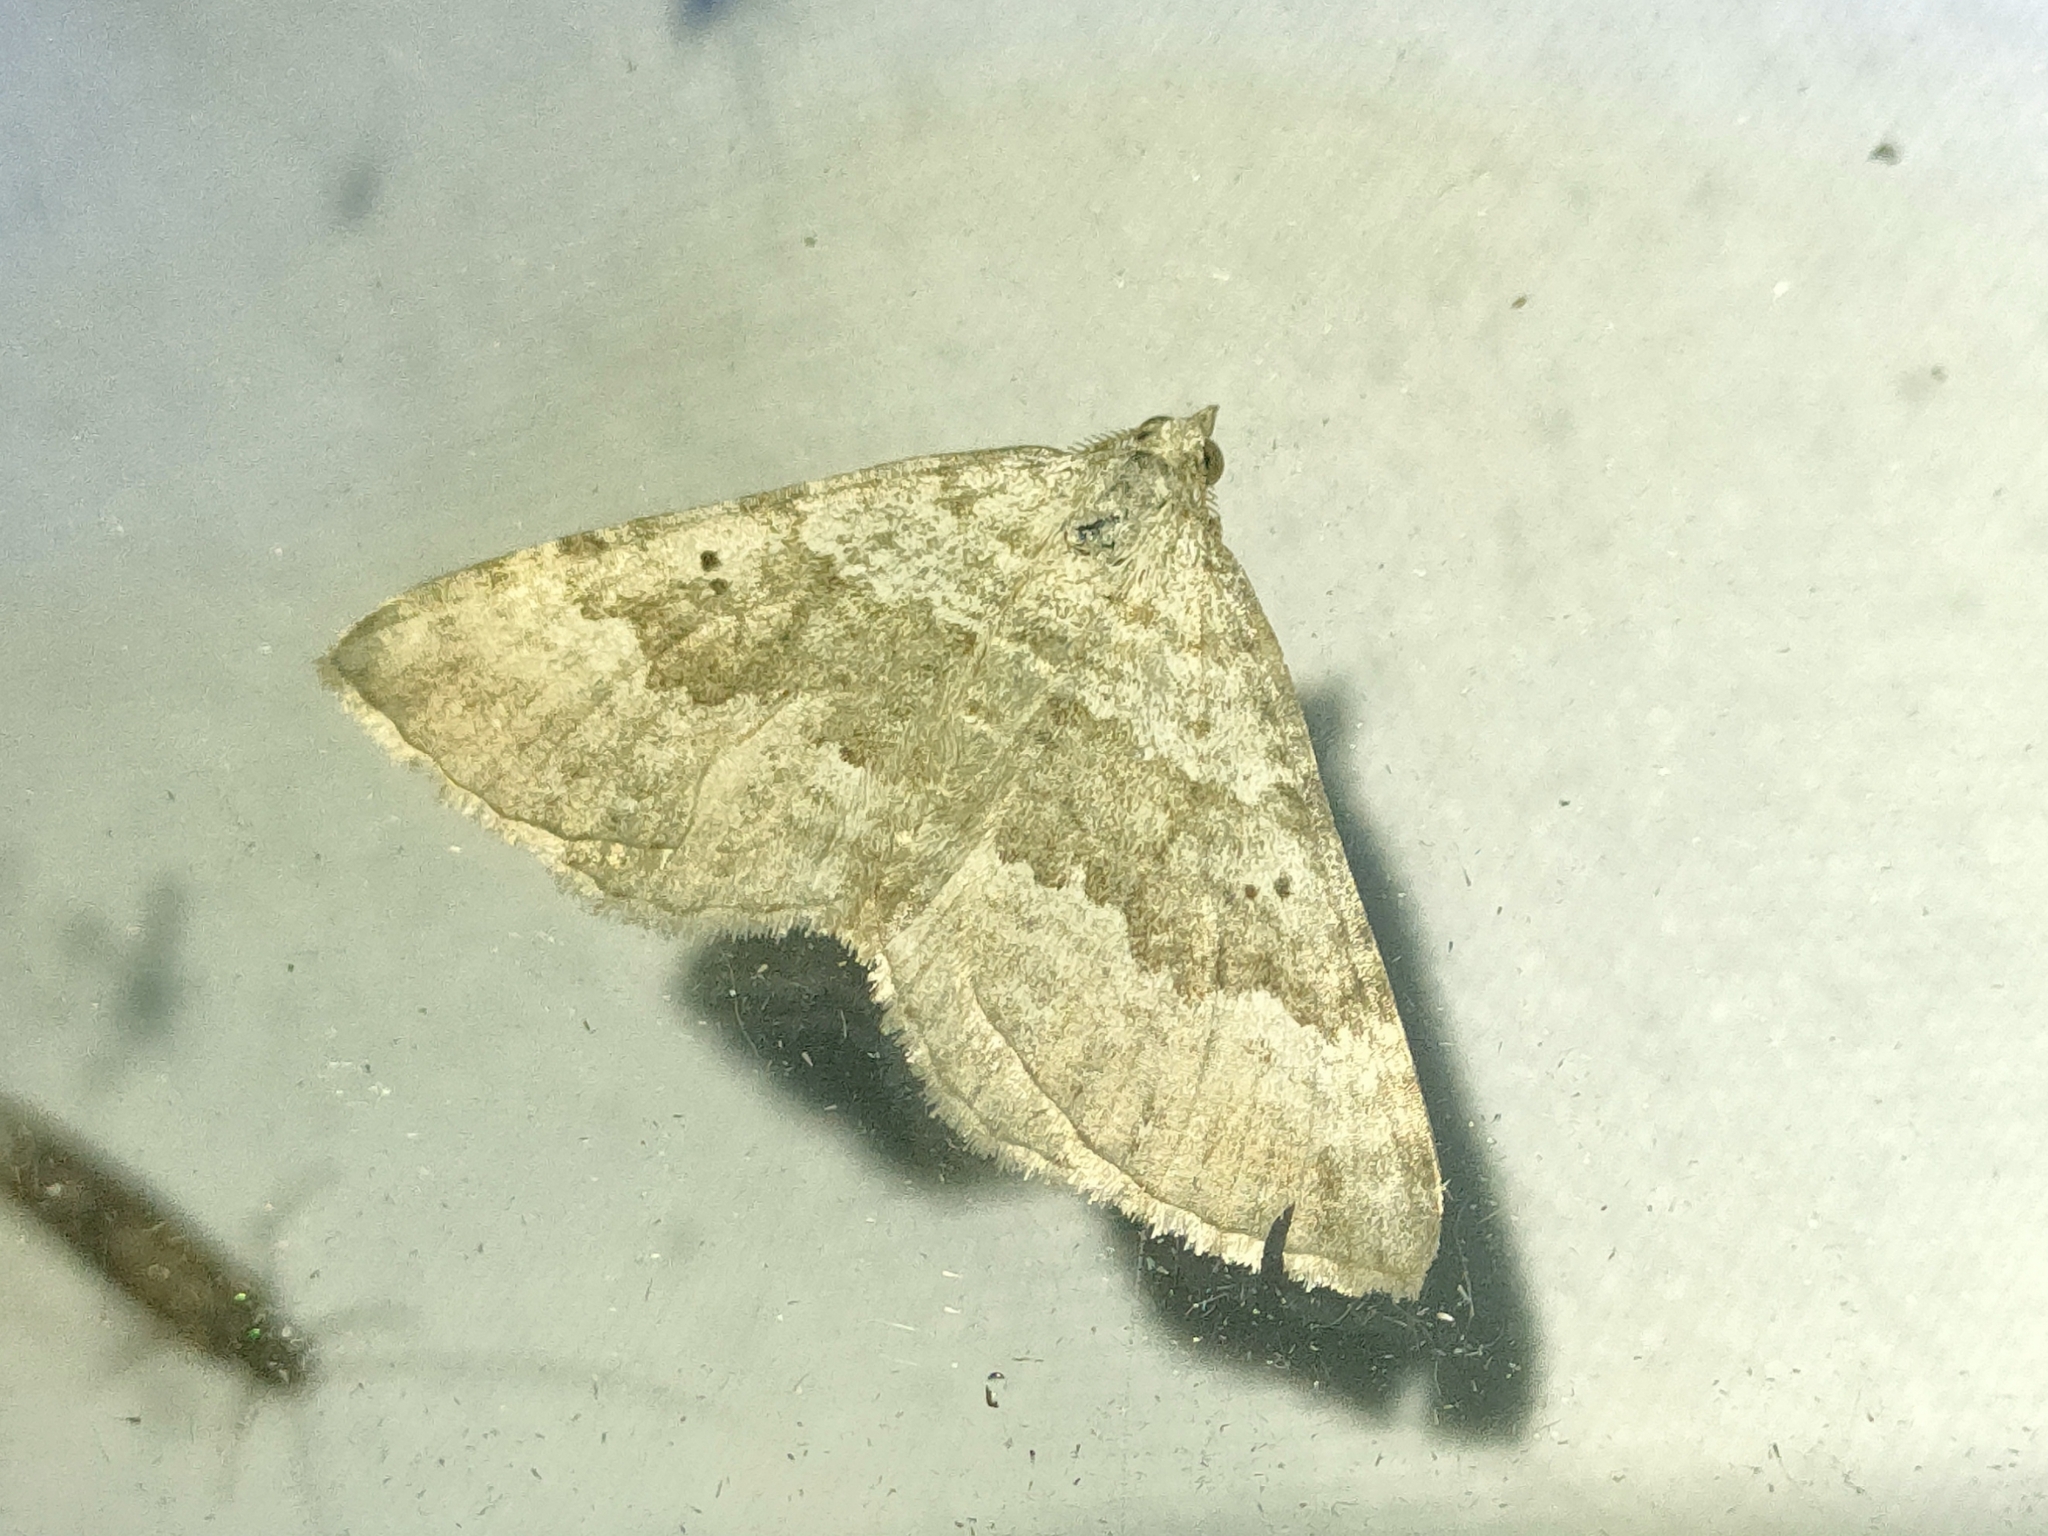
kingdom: Animalia
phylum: Arthropoda
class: Insecta
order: Lepidoptera
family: Geometridae
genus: Scotopteryx
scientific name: Scotopteryx bipunctaria
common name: Chalk carpet
